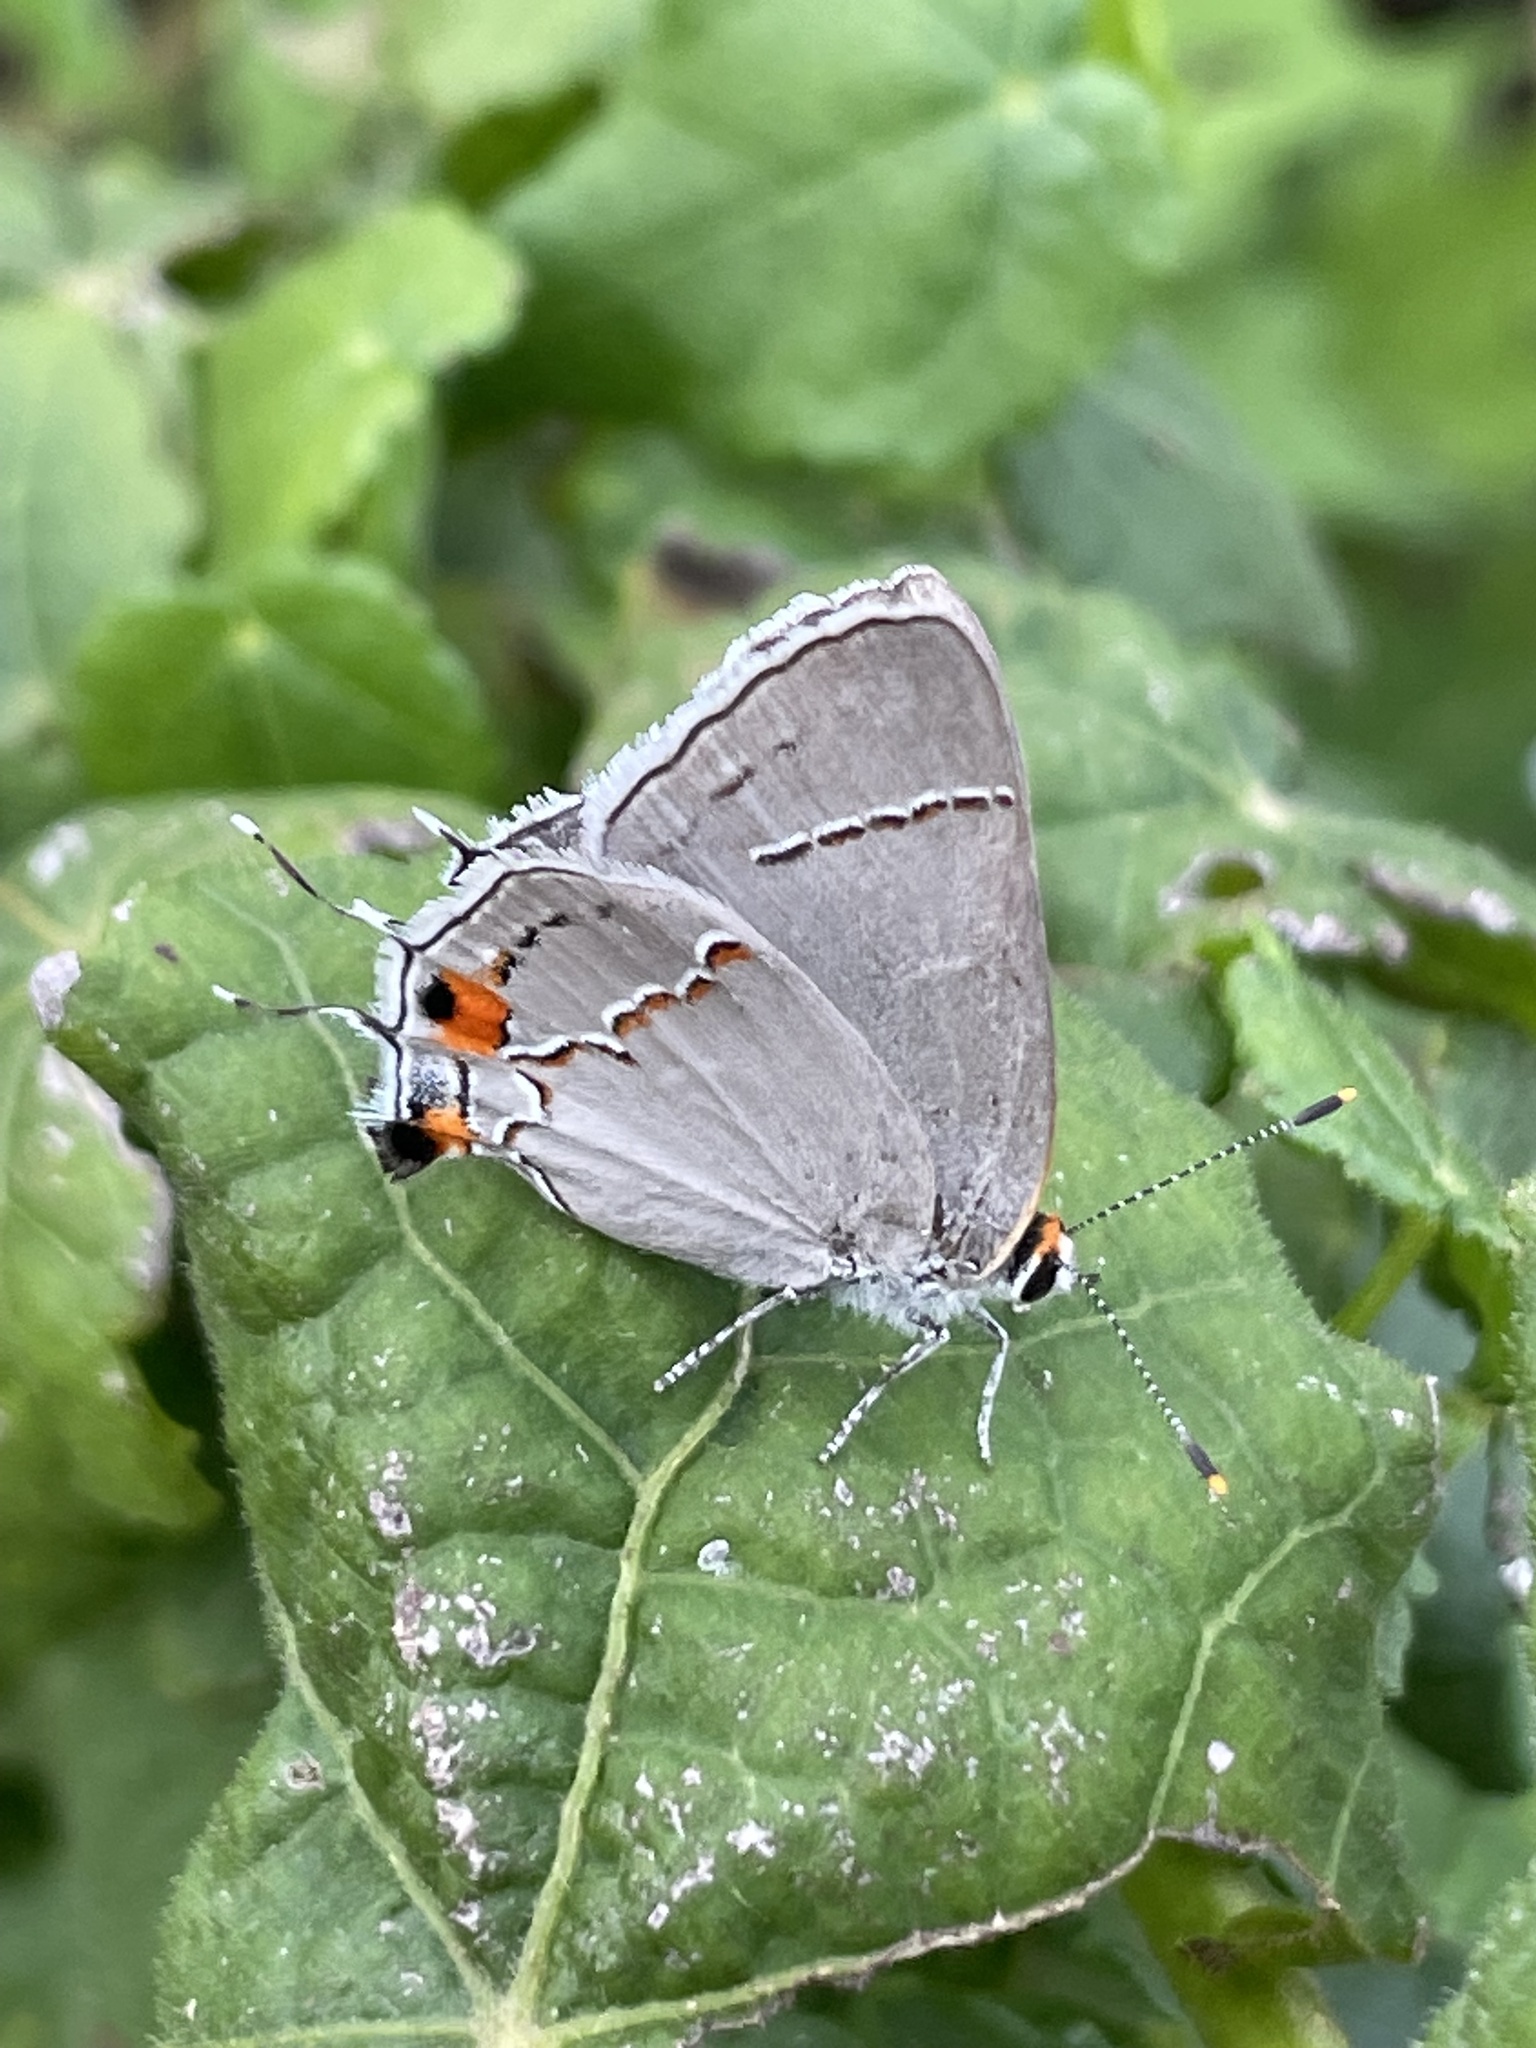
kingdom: Animalia
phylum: Arthropoda
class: Insecta
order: Lepidoptera
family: Lycaenidae
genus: Strymon
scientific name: Strymon melinus
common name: Gray hairstreak
